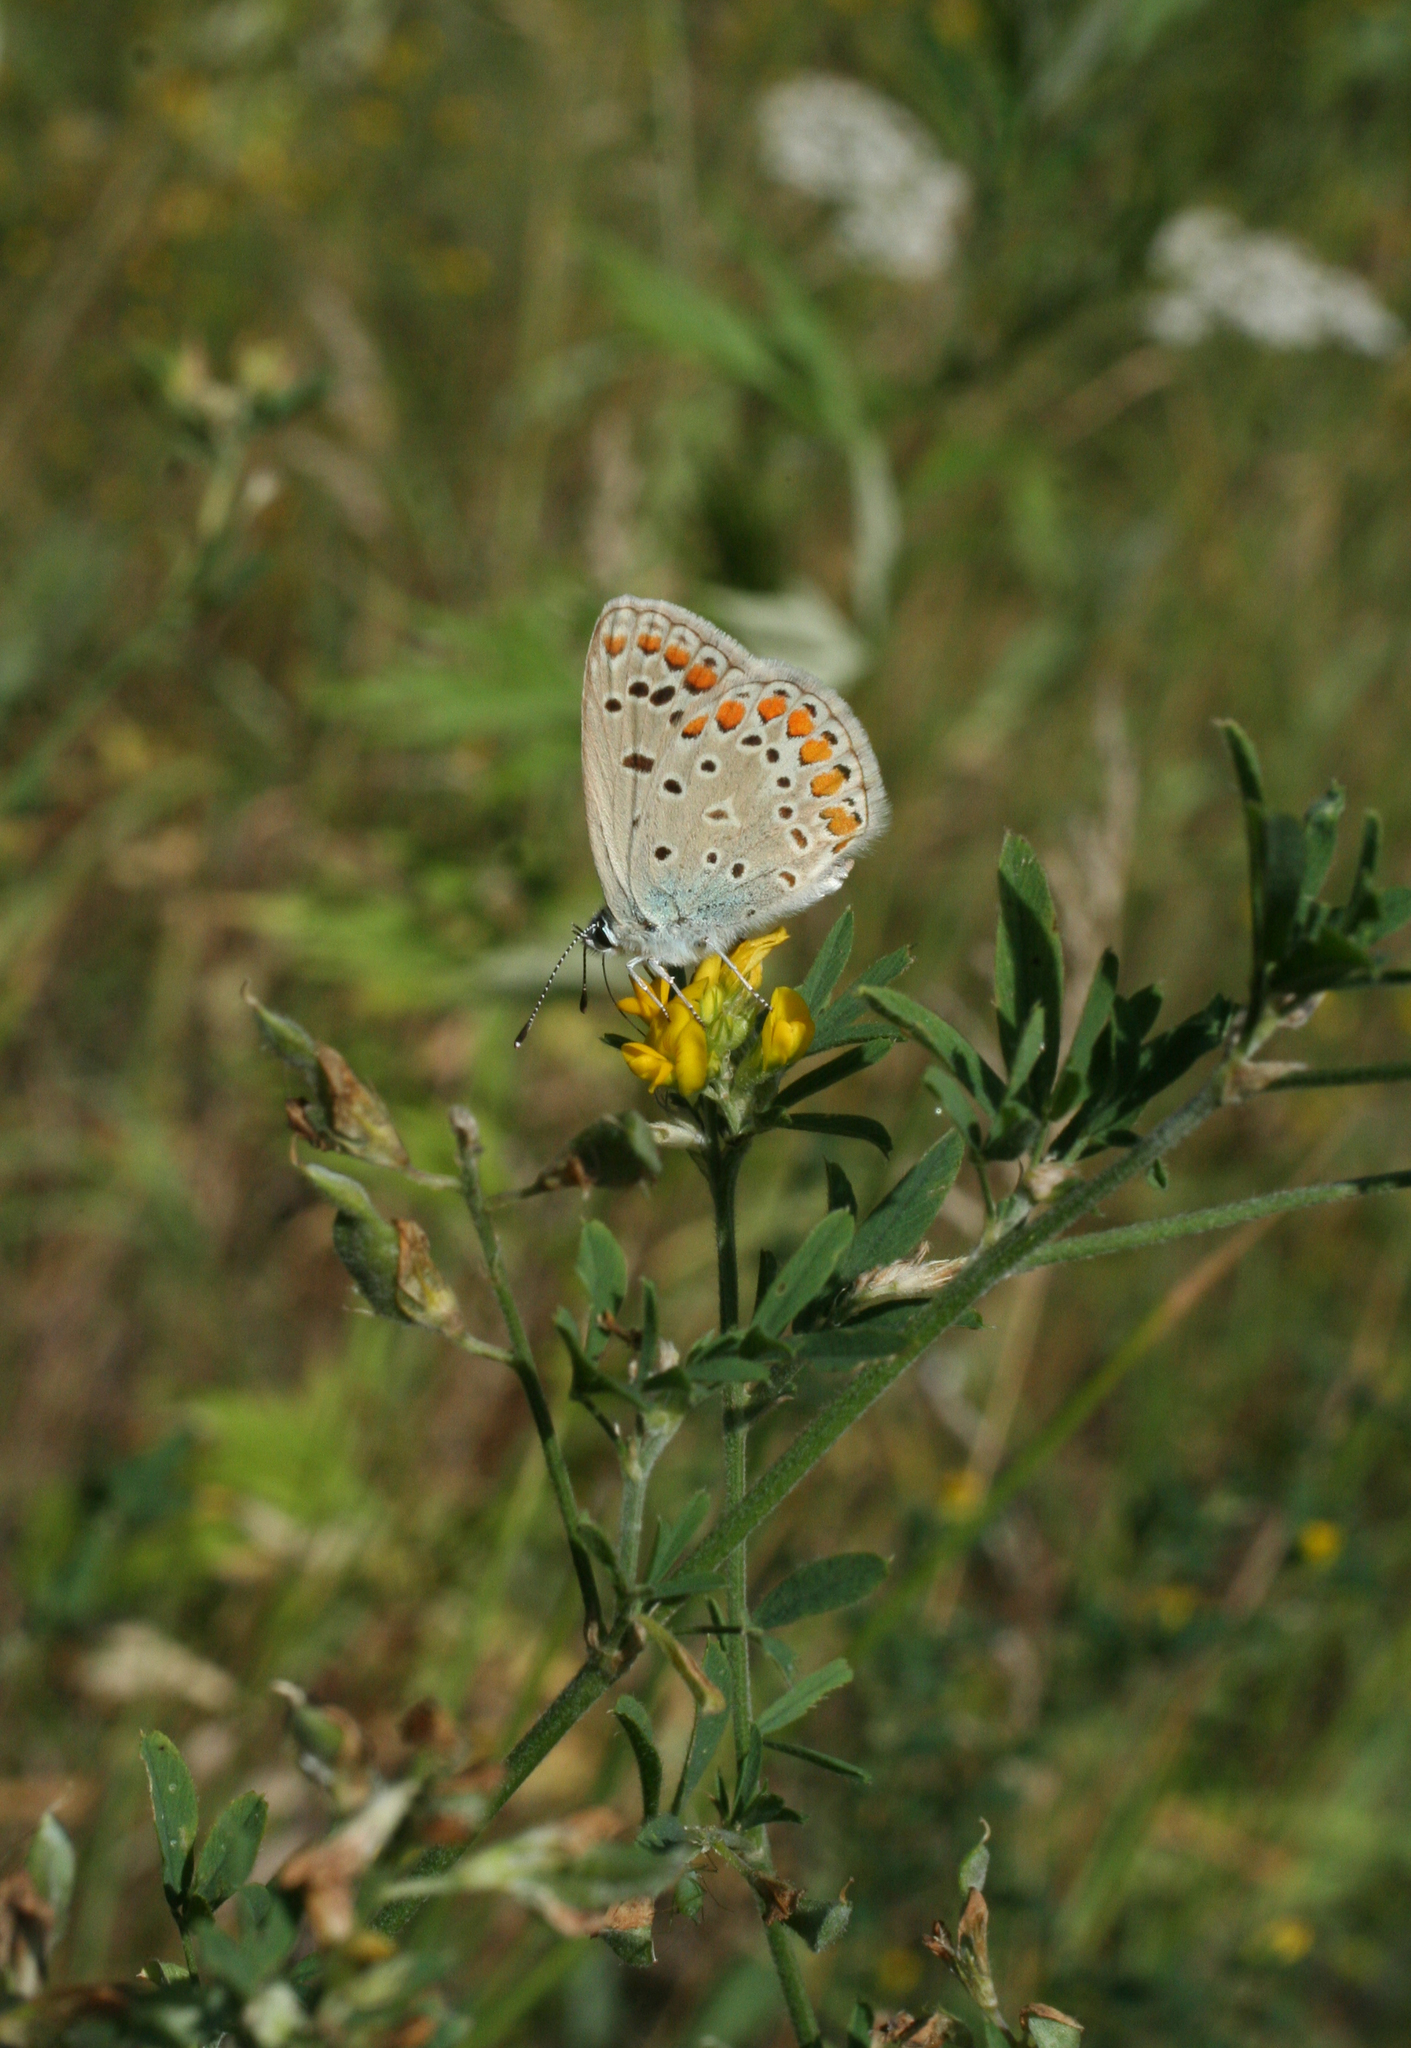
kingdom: Animalia
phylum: Arthropoda
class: Insecta
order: Lepidoptera
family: Lycaenidae
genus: Polyommatus
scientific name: Polyommatus icarus
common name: Common blue
